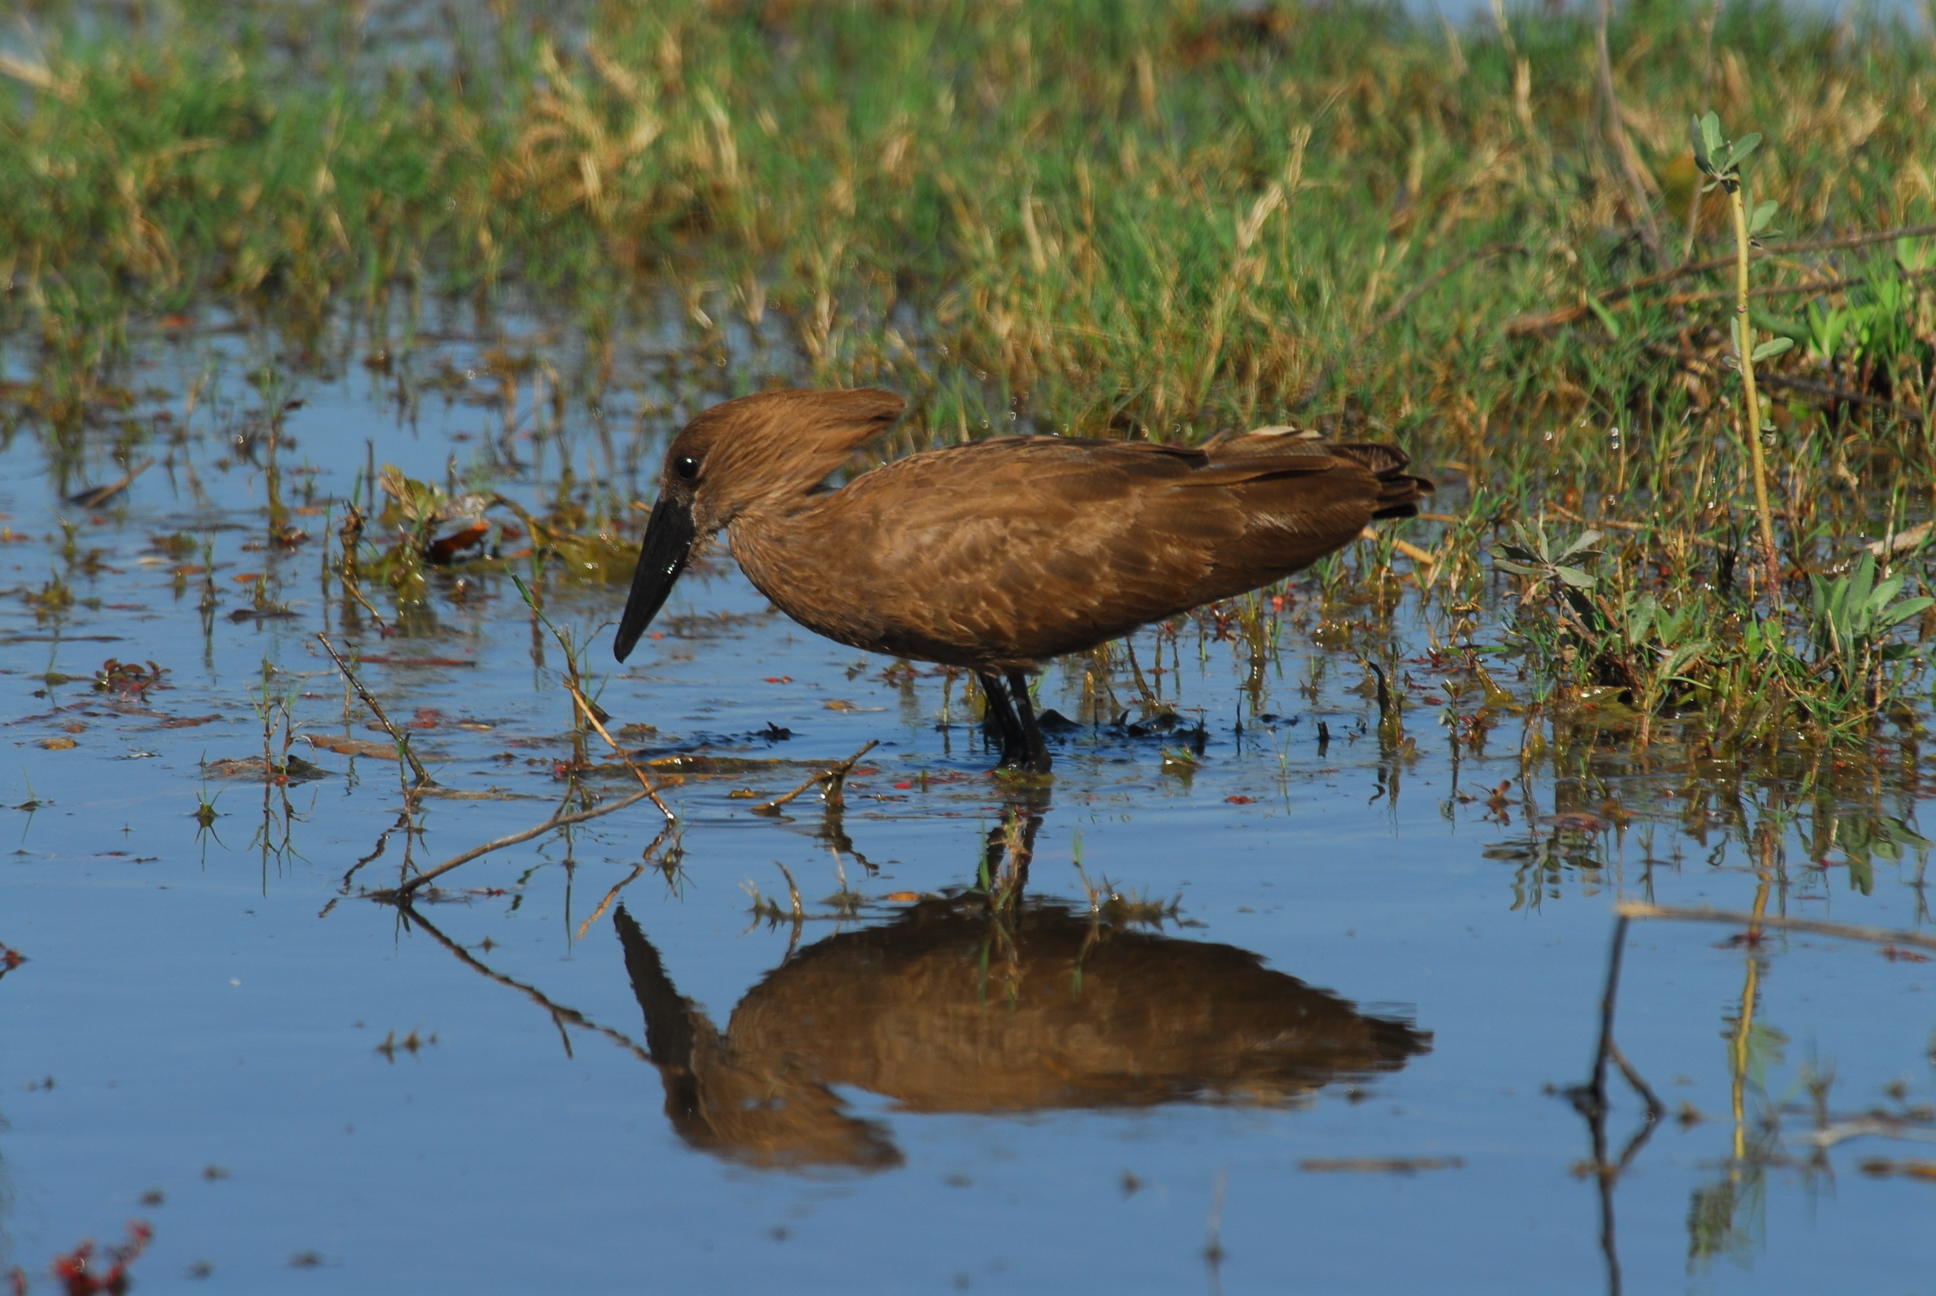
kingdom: Animalia
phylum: Chordata
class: Aves
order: Pelecaniformes
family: Scopidae
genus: Scopus
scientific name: Scopus umbretta
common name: Hamerkop
